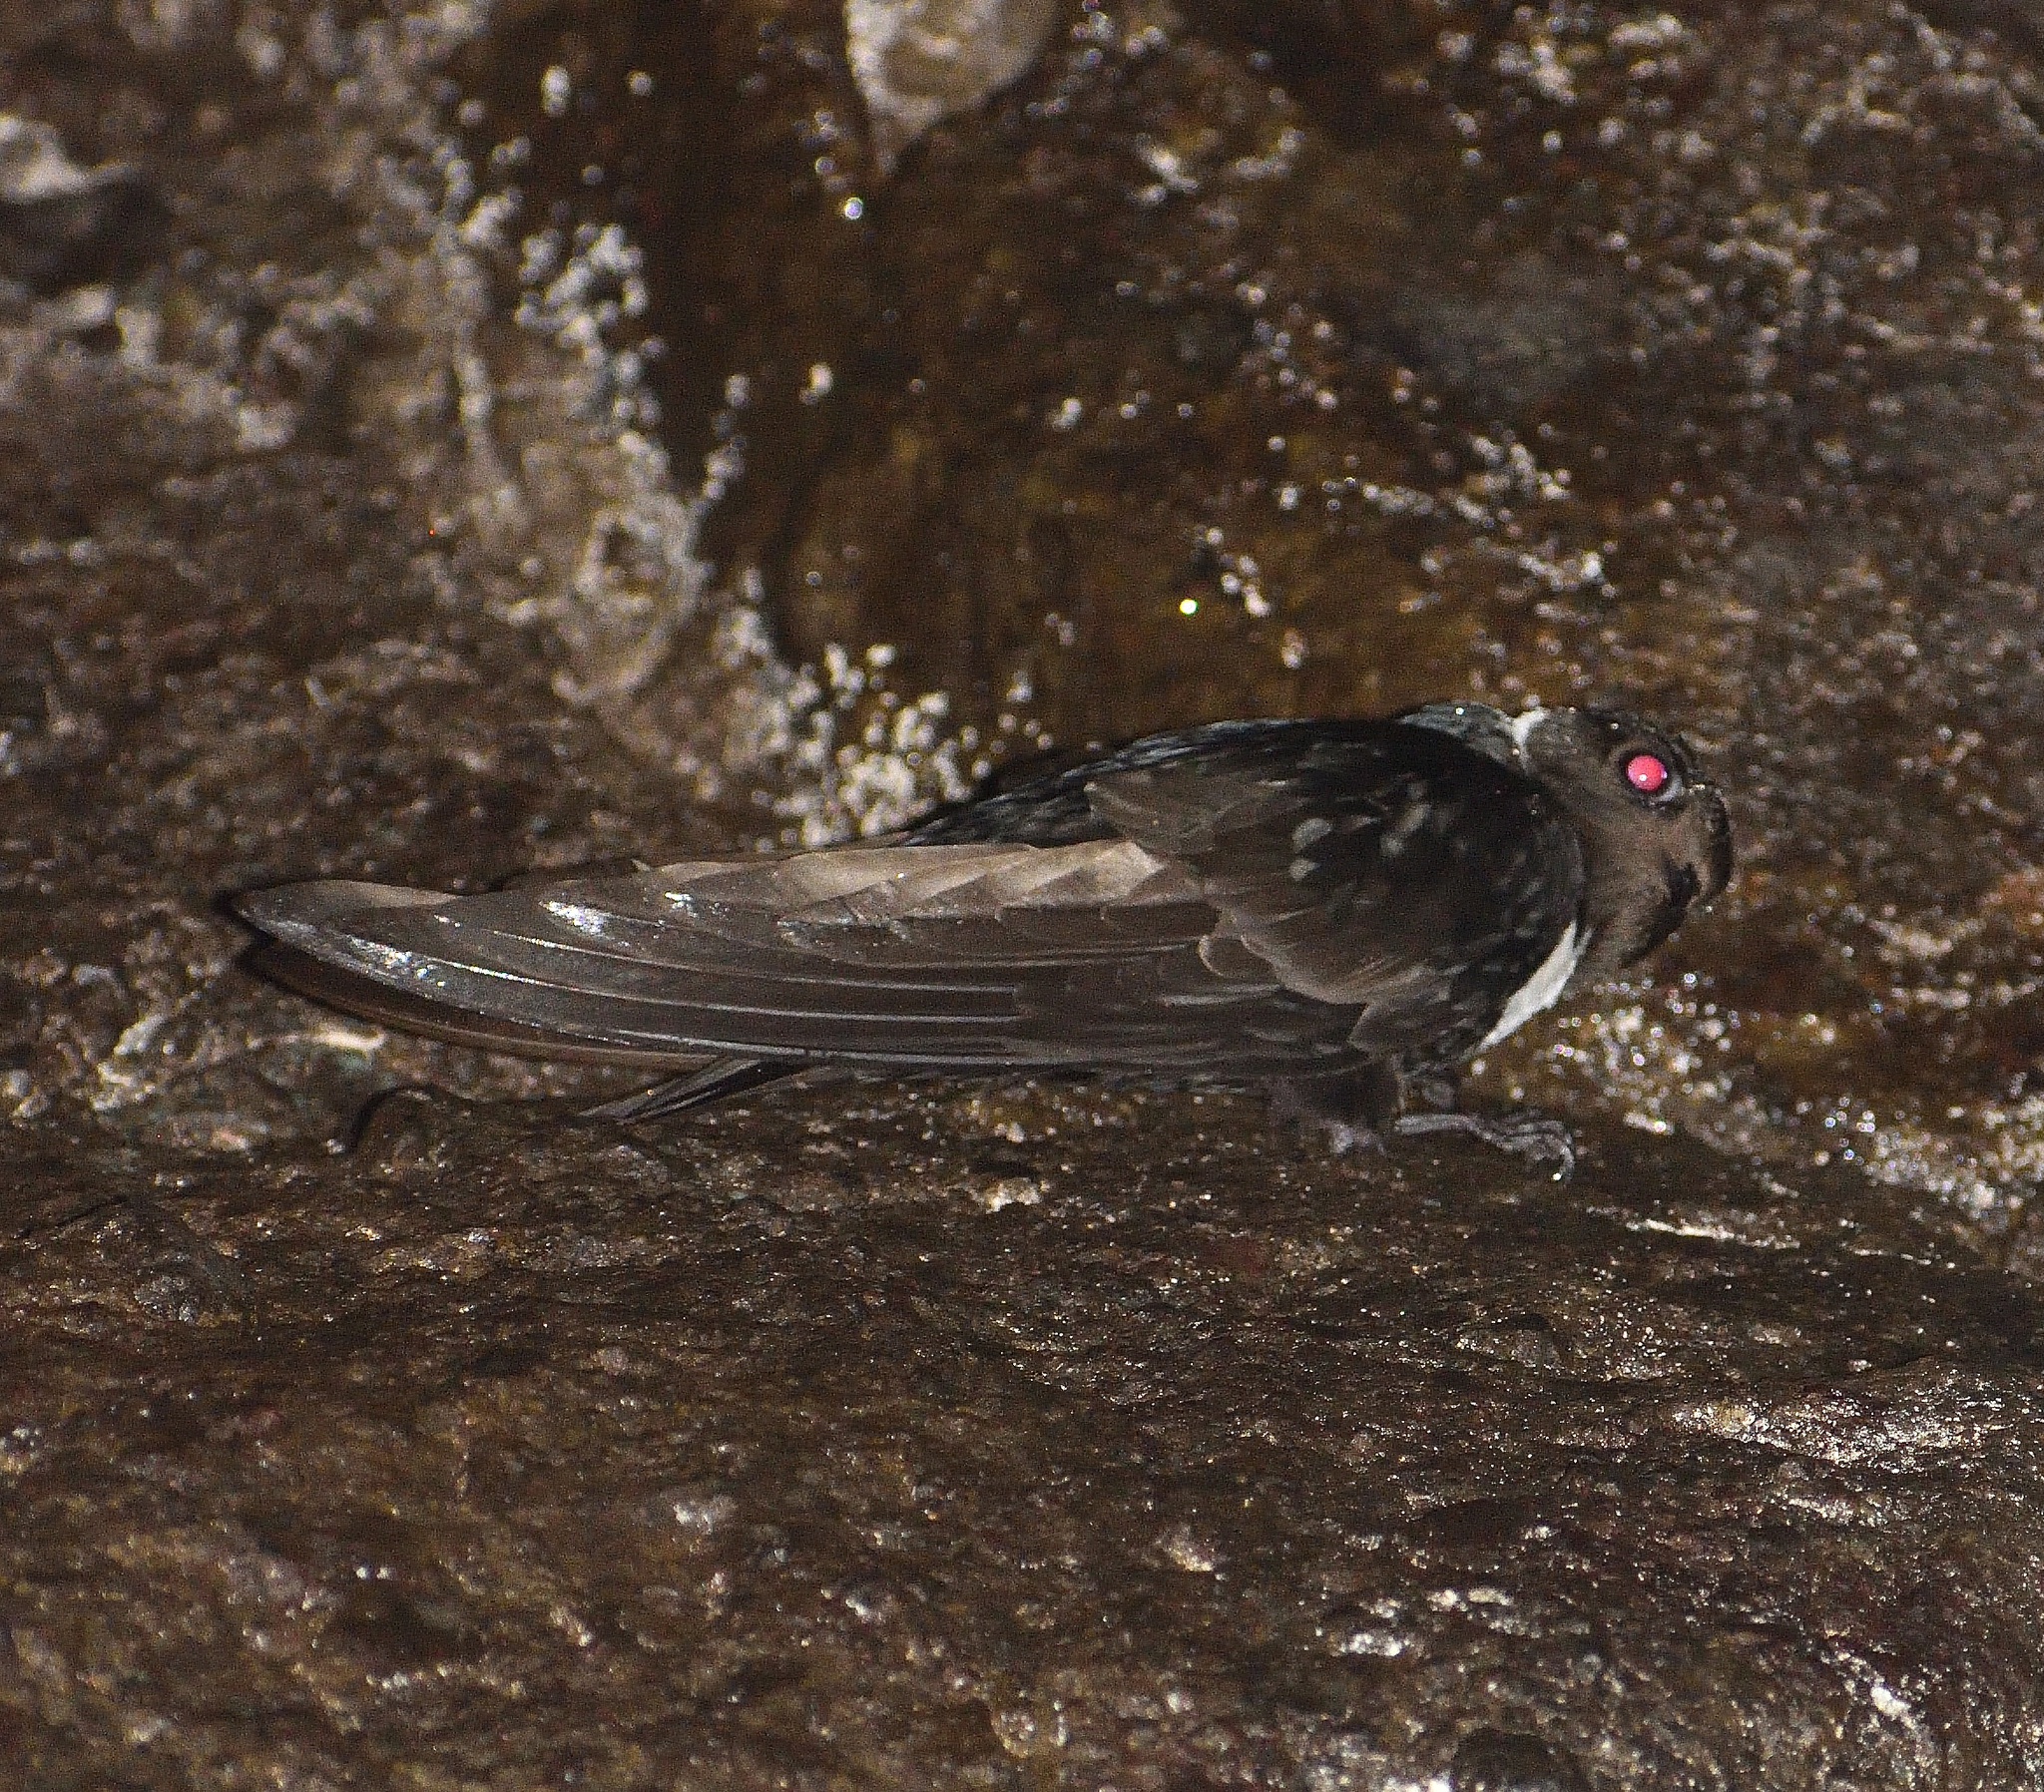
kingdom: Animalia
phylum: Chordata
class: Aves
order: Apodiformes
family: Apodidae
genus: Streptoprocne
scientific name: Streptoprocne zonaris
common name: White-collared swift
